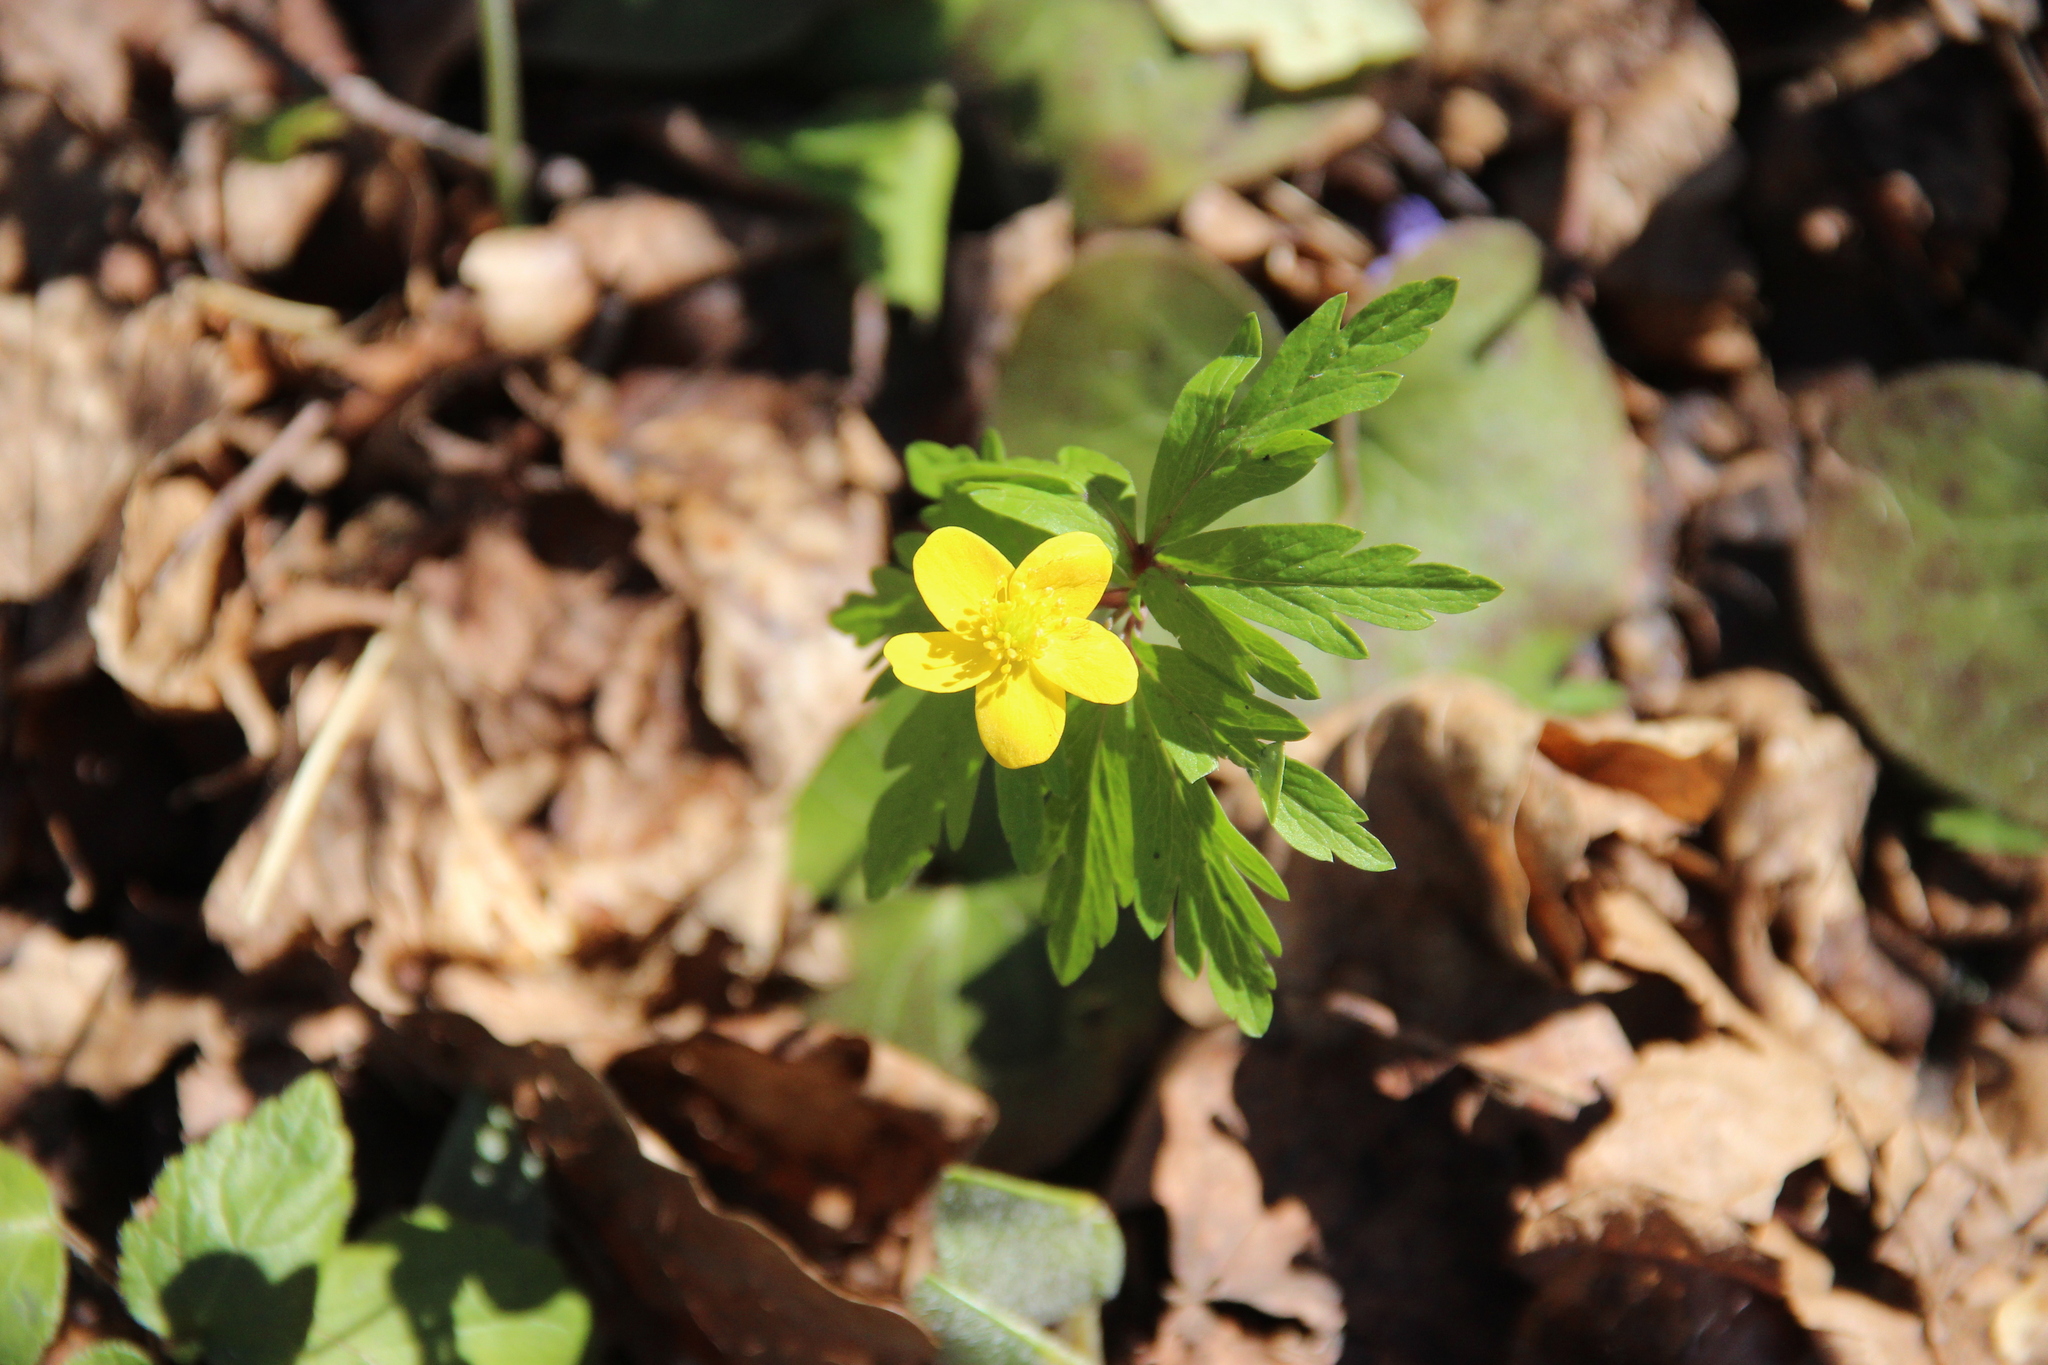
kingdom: Plantae
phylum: Tracheophyta
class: Magnoliopsida
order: Ranunculales
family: Ranunculaceae
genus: Anemone
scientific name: Anemone ranunculoides
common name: Yellow anemone
